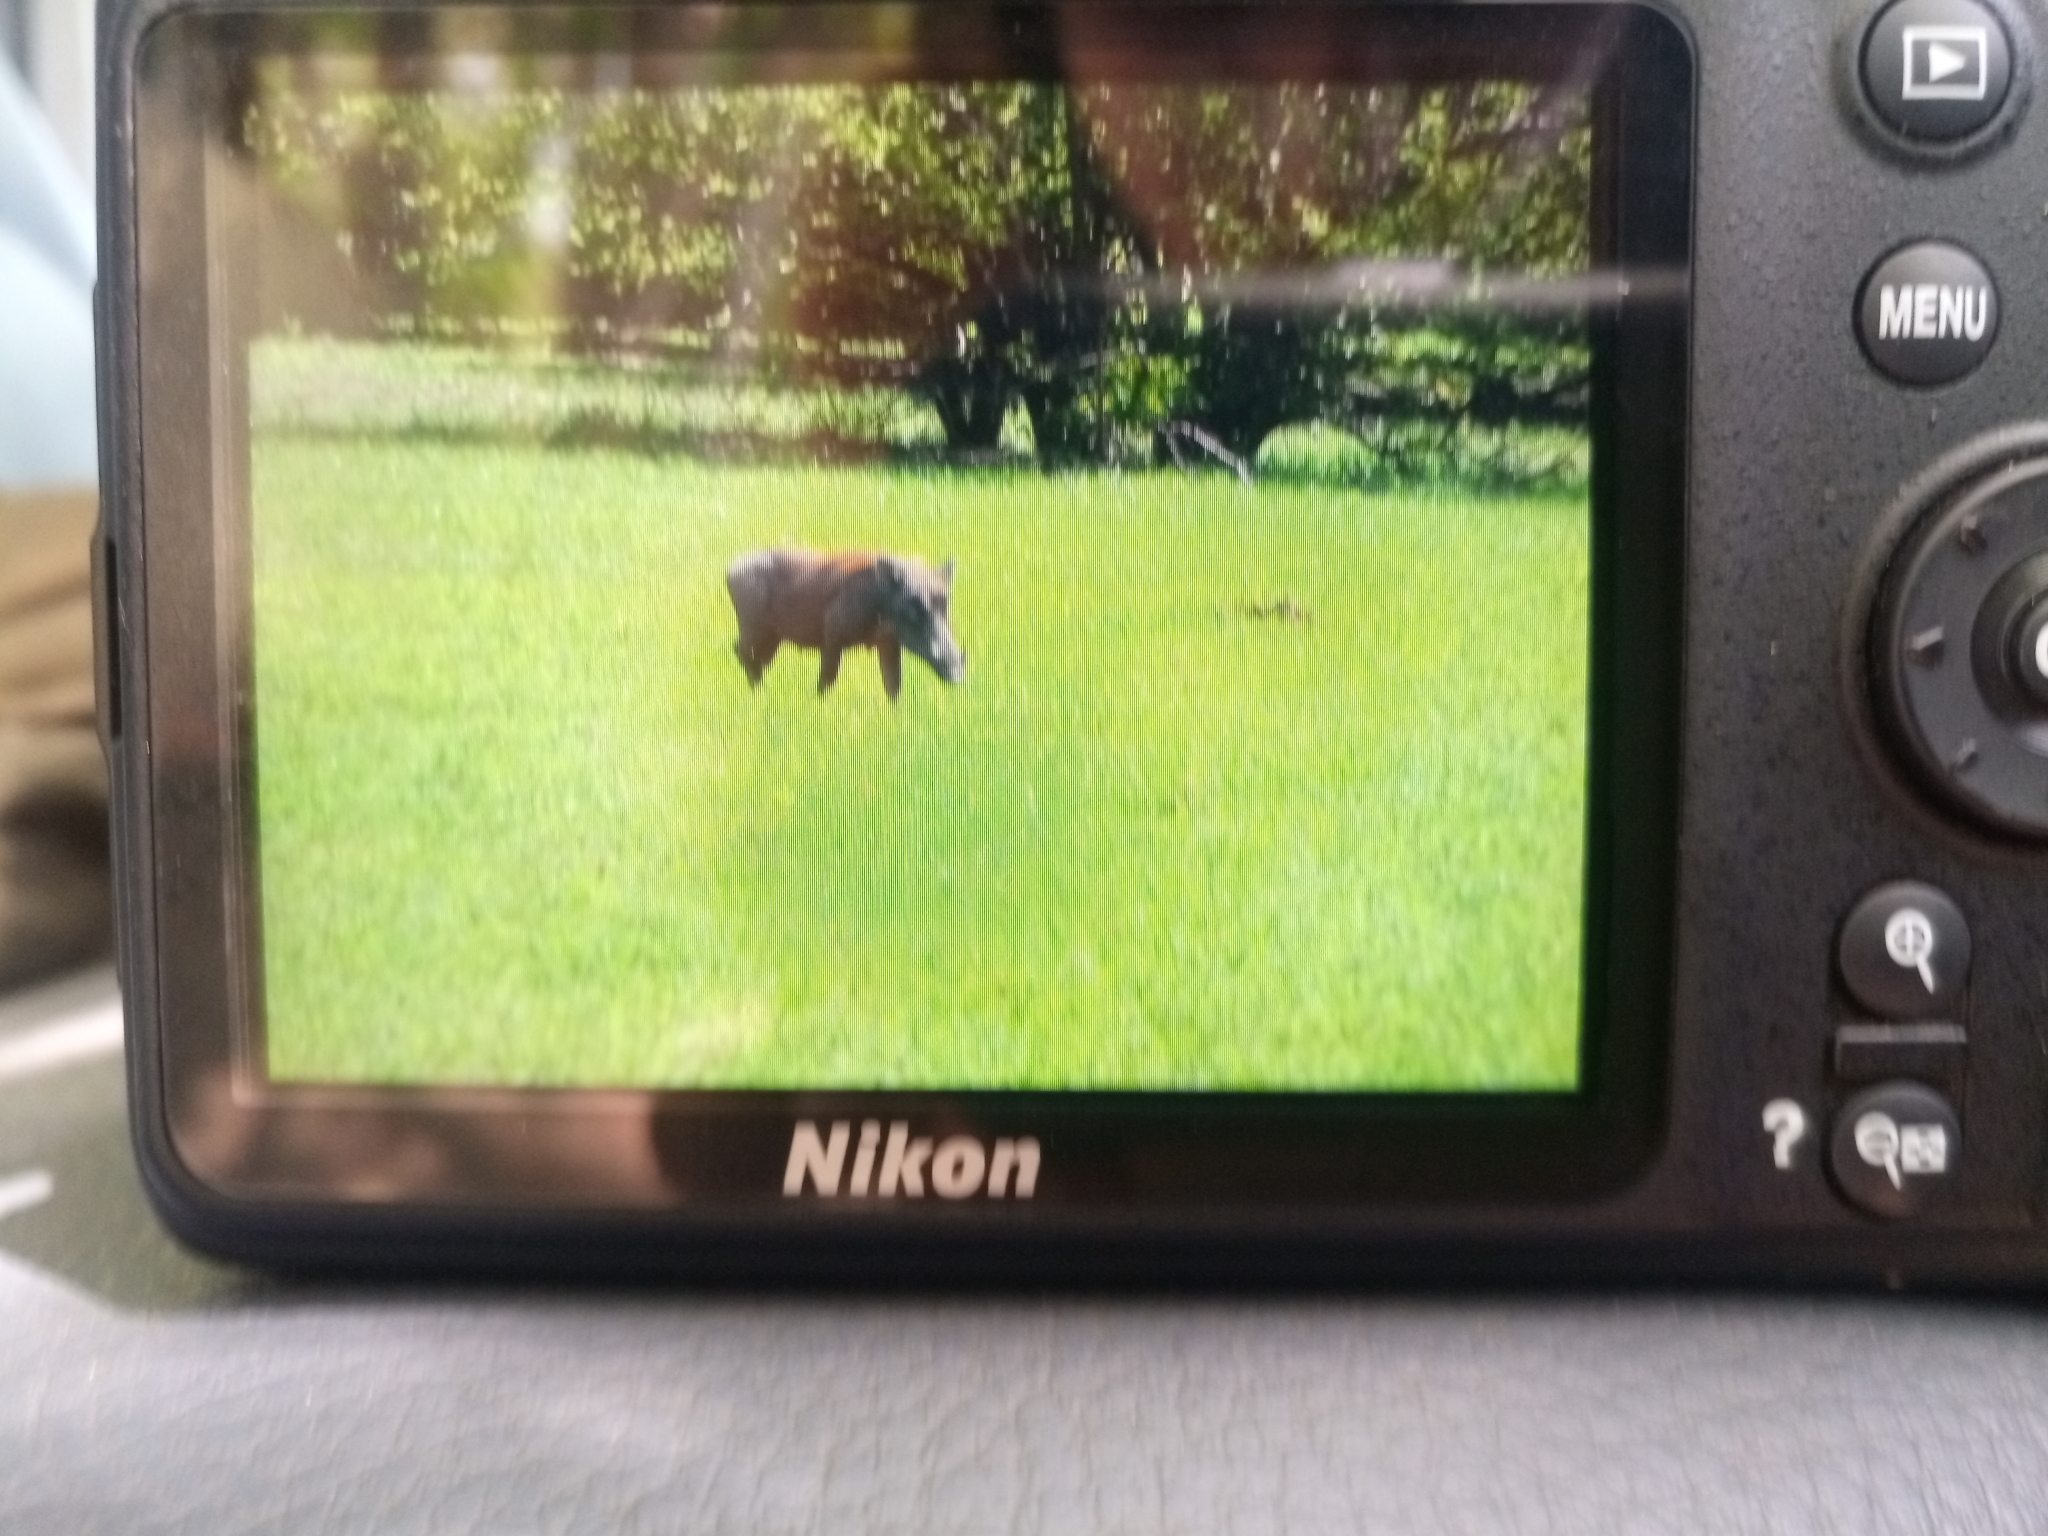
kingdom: Animalia
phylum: Chordata
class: Mammalia
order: Artiodactyla
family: Suidae
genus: Phacochoerus
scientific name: Phacochoerus africanus
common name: Common warthog
